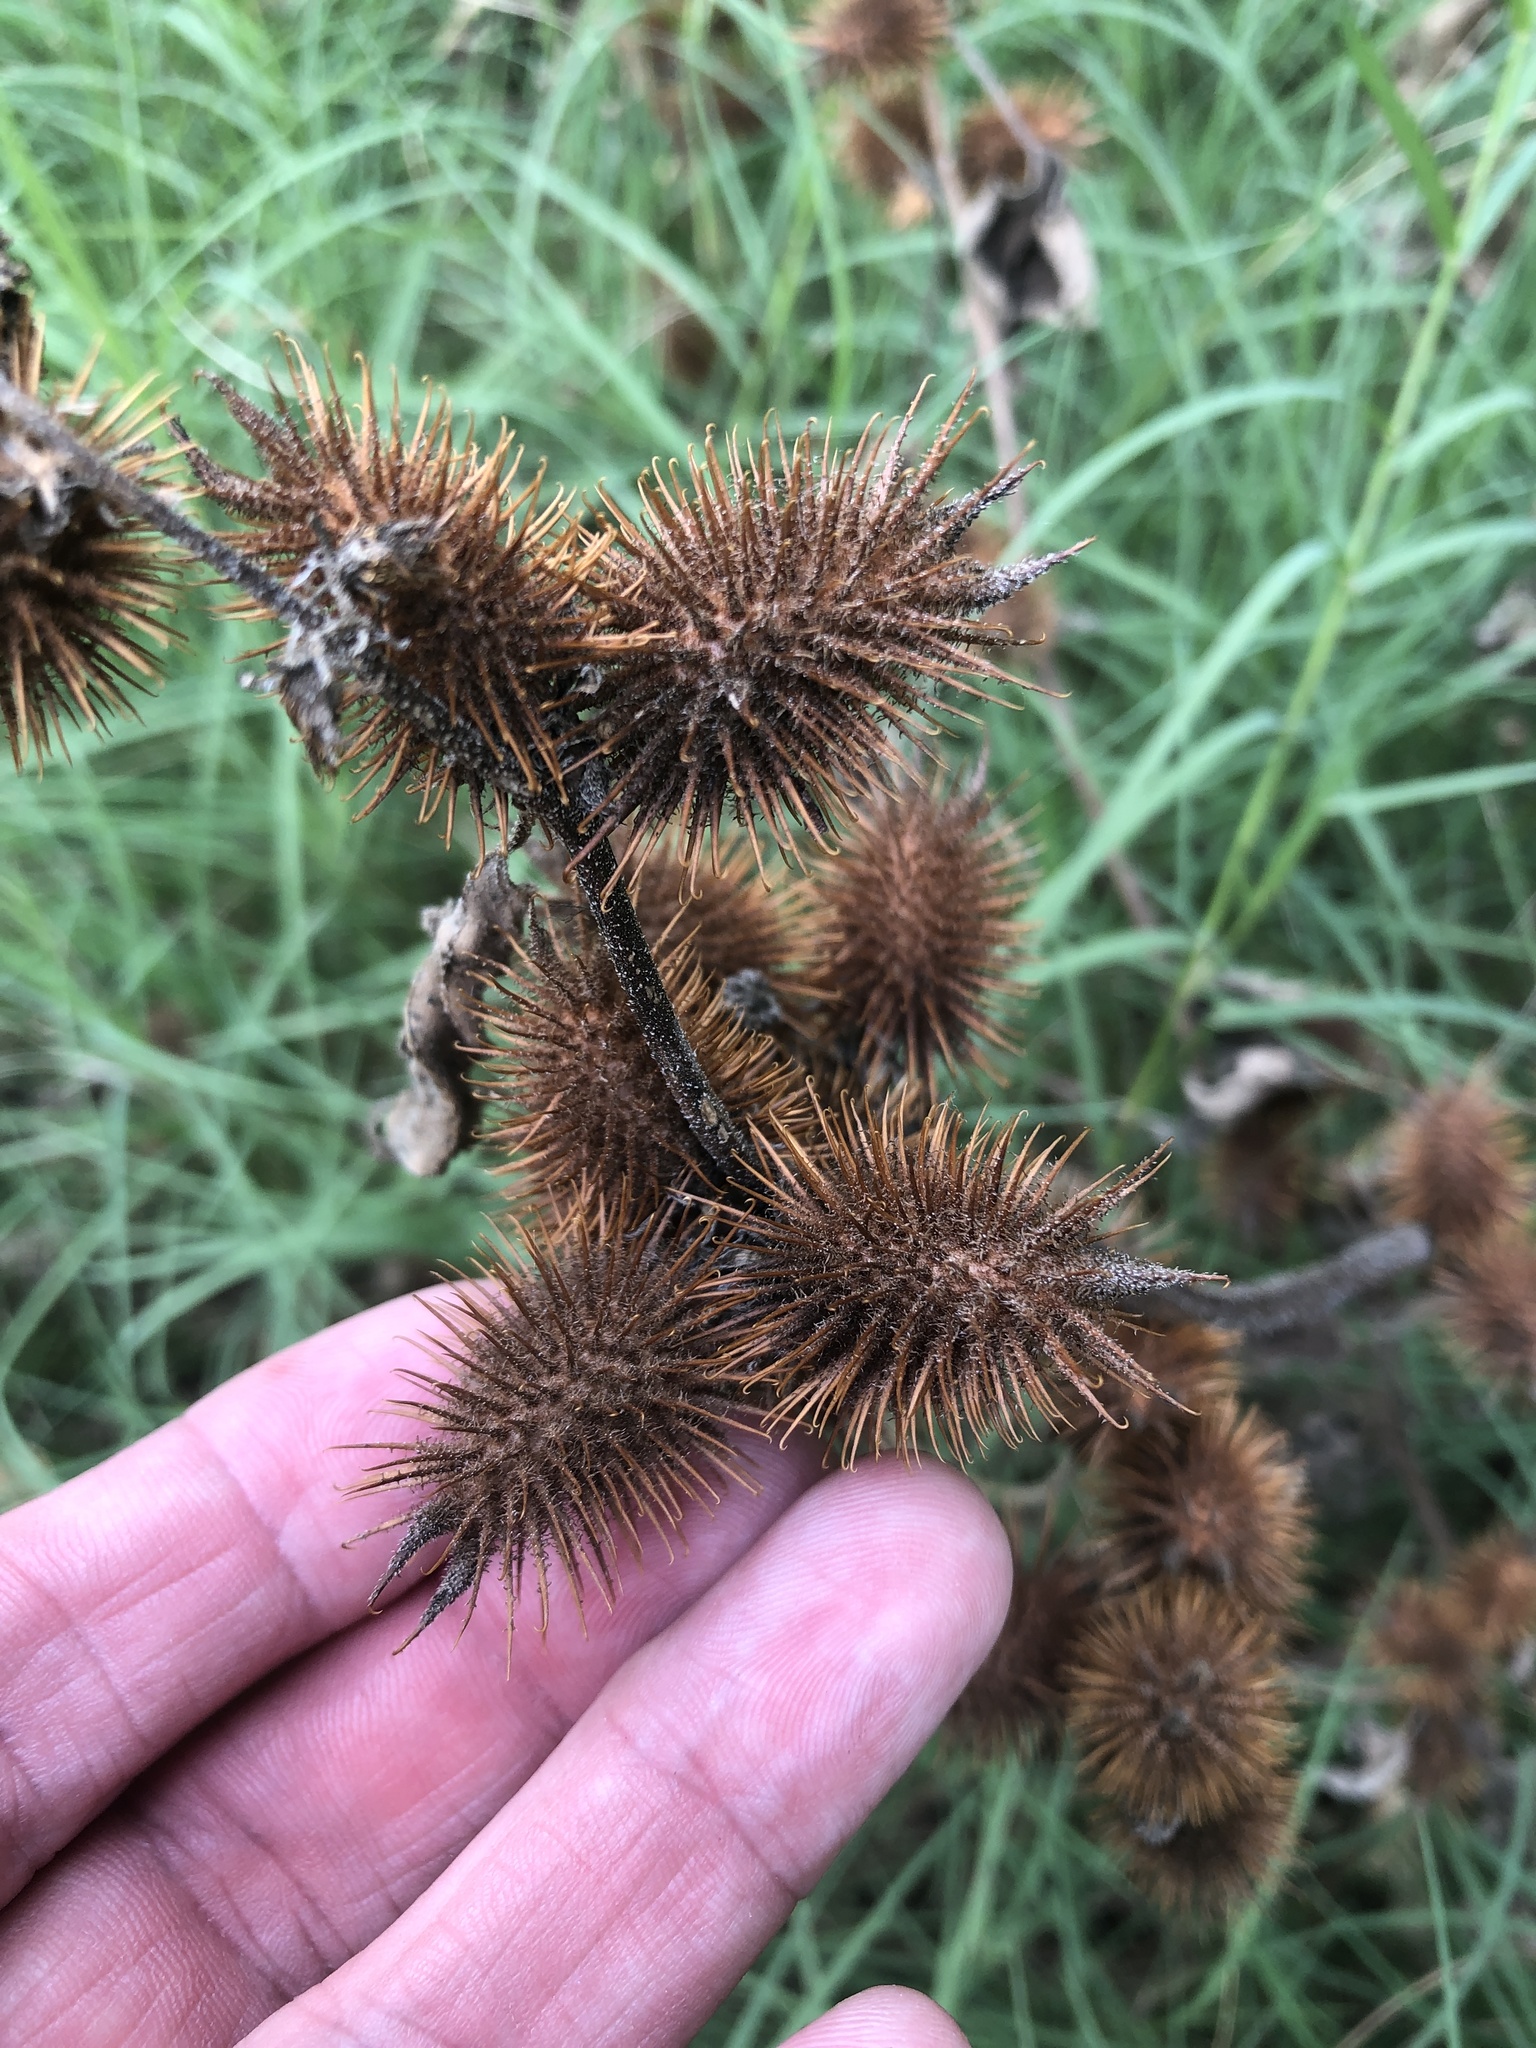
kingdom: Plantae
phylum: Tracheophyta
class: Magnoliopsida
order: Asterales
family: Asteraceae
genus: Xanthium
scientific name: Xanthium strumarium
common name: Rough cocklebur
